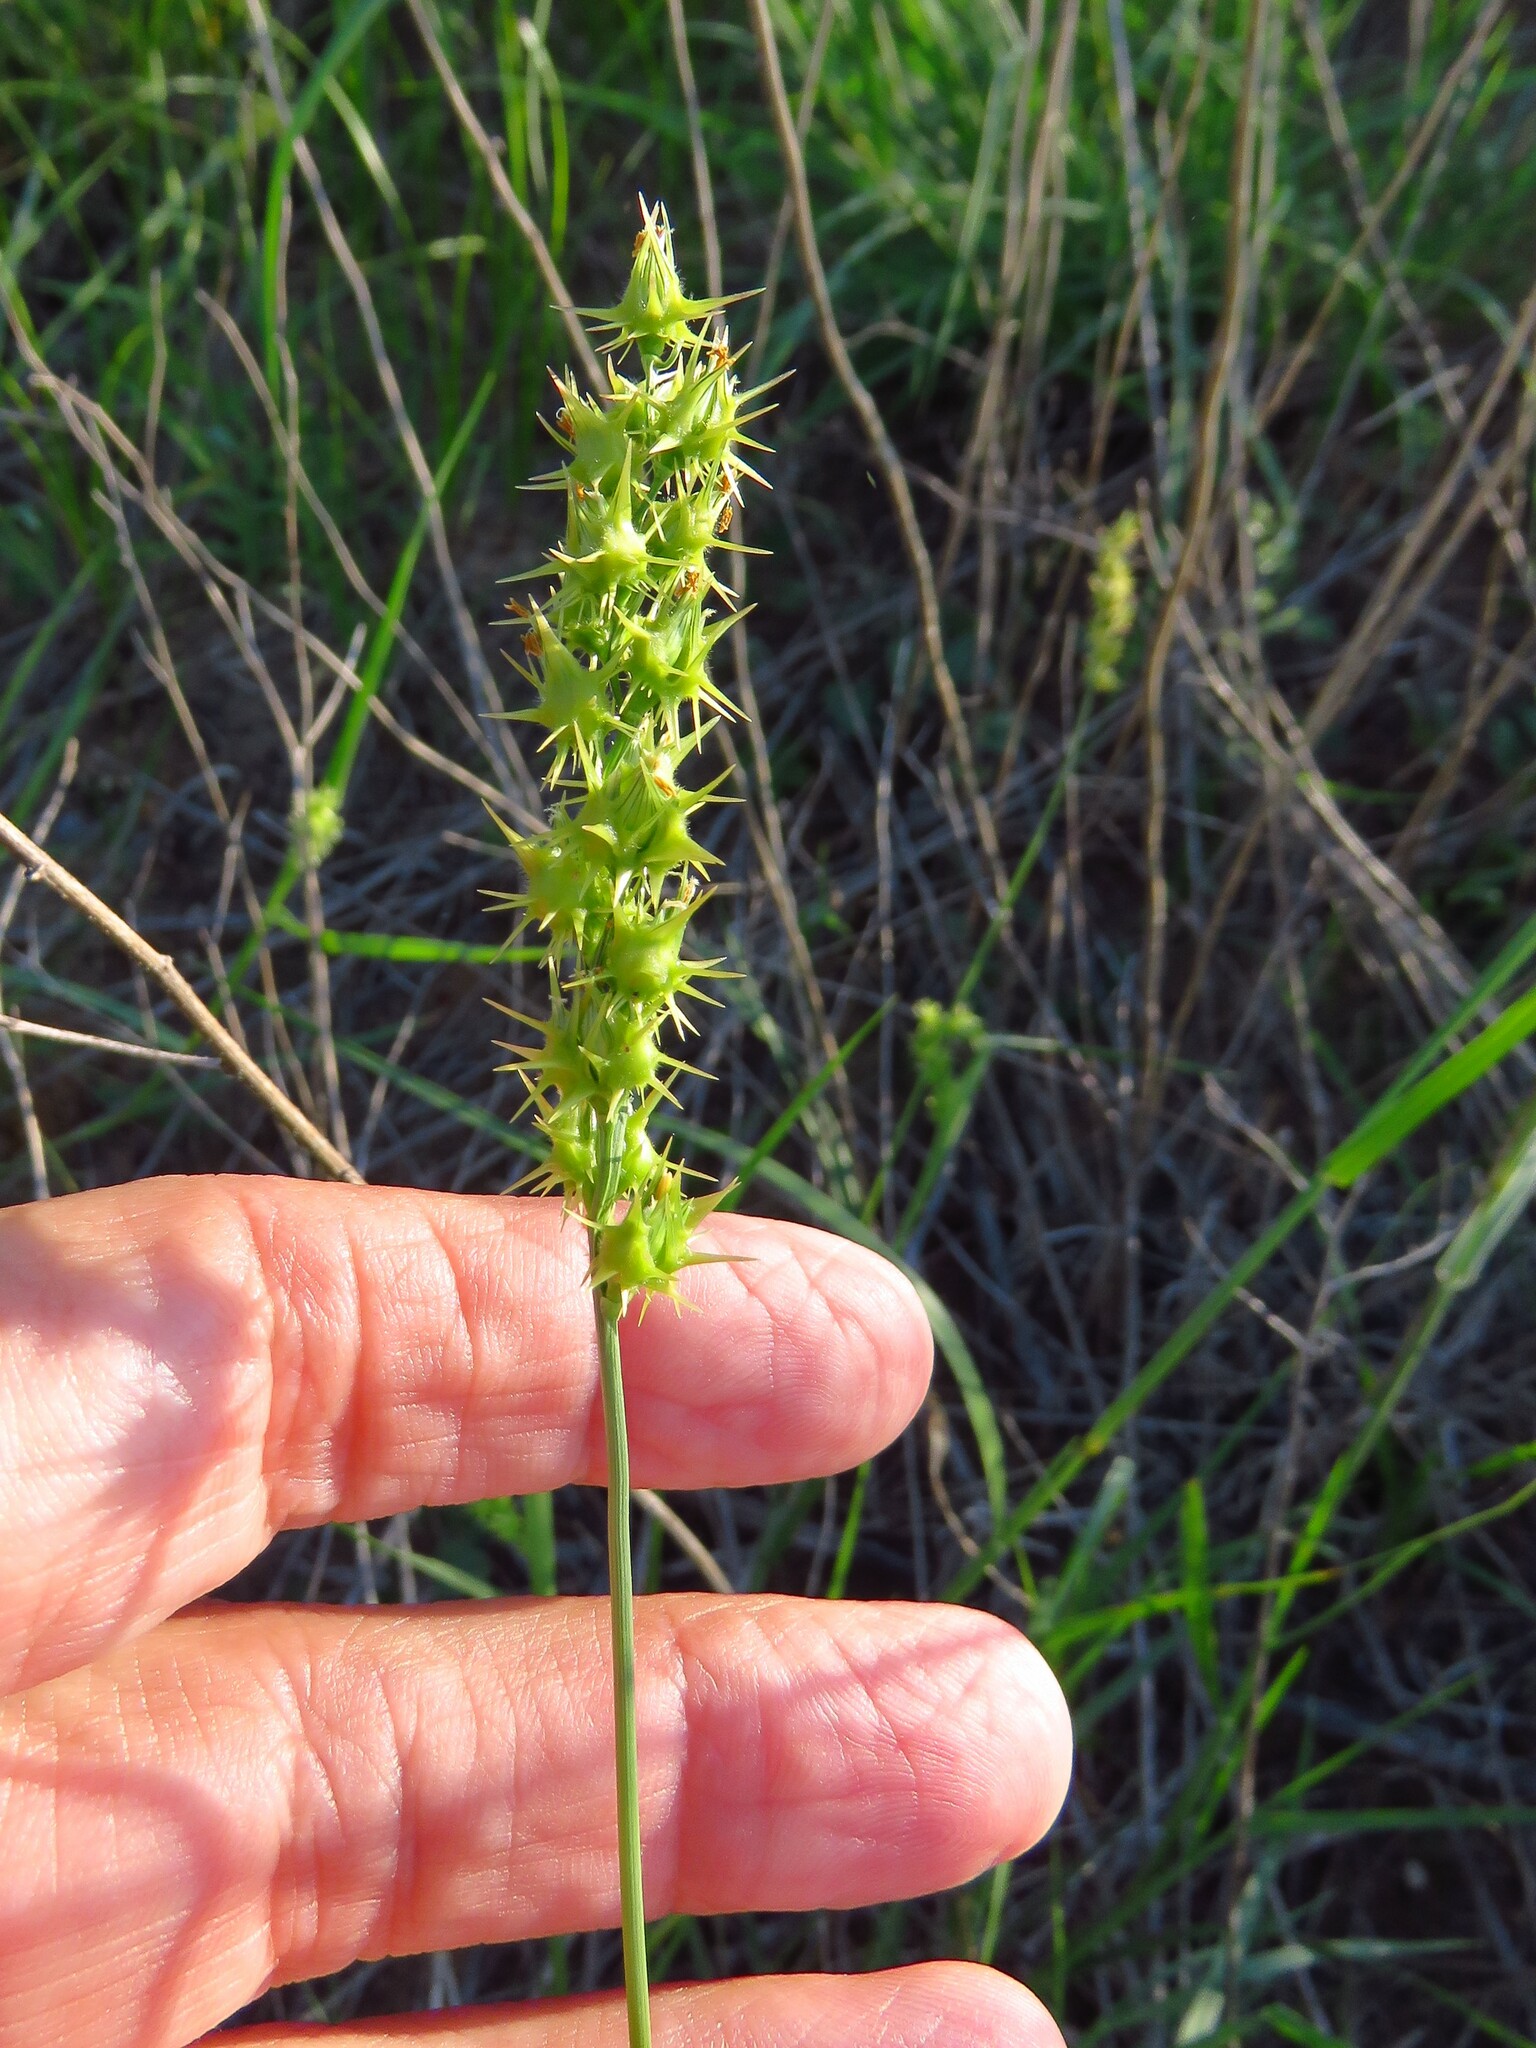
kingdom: Plantae
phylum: Tracheophyta
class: Liliopsida
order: Poales
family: Poaceae
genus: Cenchrus
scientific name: Cenchrus spinifex
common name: Coast sandbur
